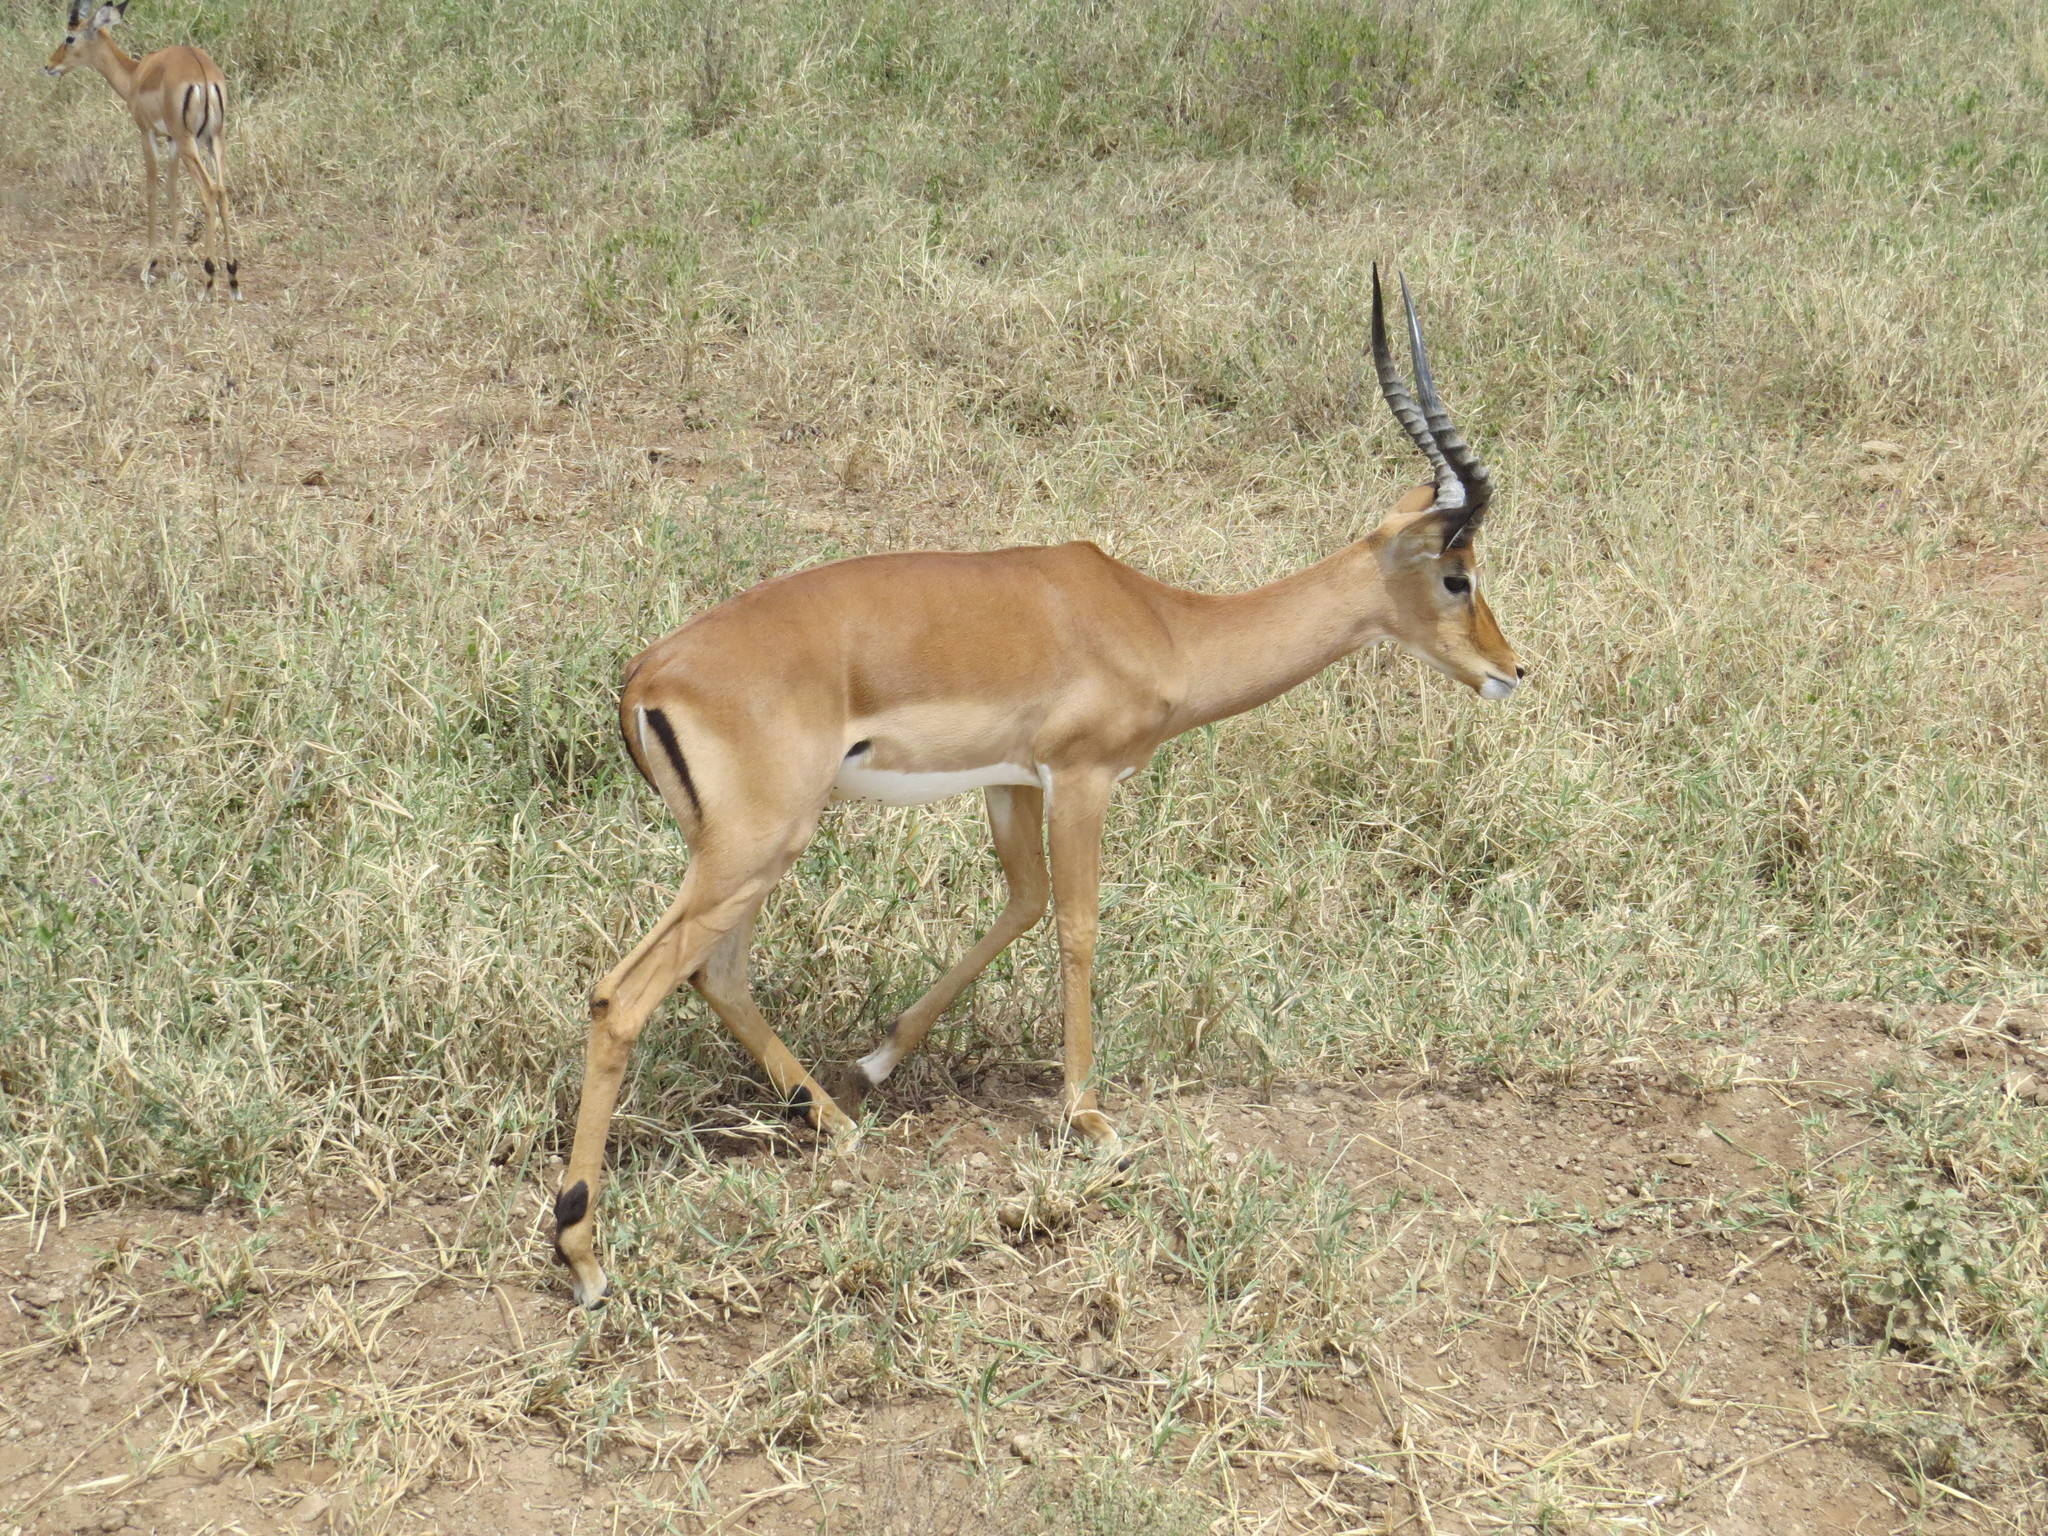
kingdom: Animalia
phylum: Chordata
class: Mammalia
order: Artiodactyla
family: Bovidae
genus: Aepyceros
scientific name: Aepyceros melampus
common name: Impala
